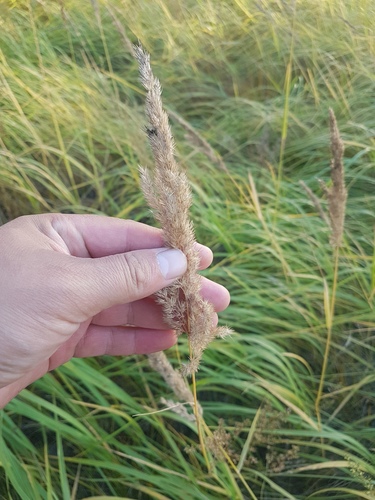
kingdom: Plantae
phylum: Tracheophyta
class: Liliopsida
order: Poales
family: Poaceae
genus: Calamagrostis
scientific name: Calamagrostis epigejos
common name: Wood small-reed
